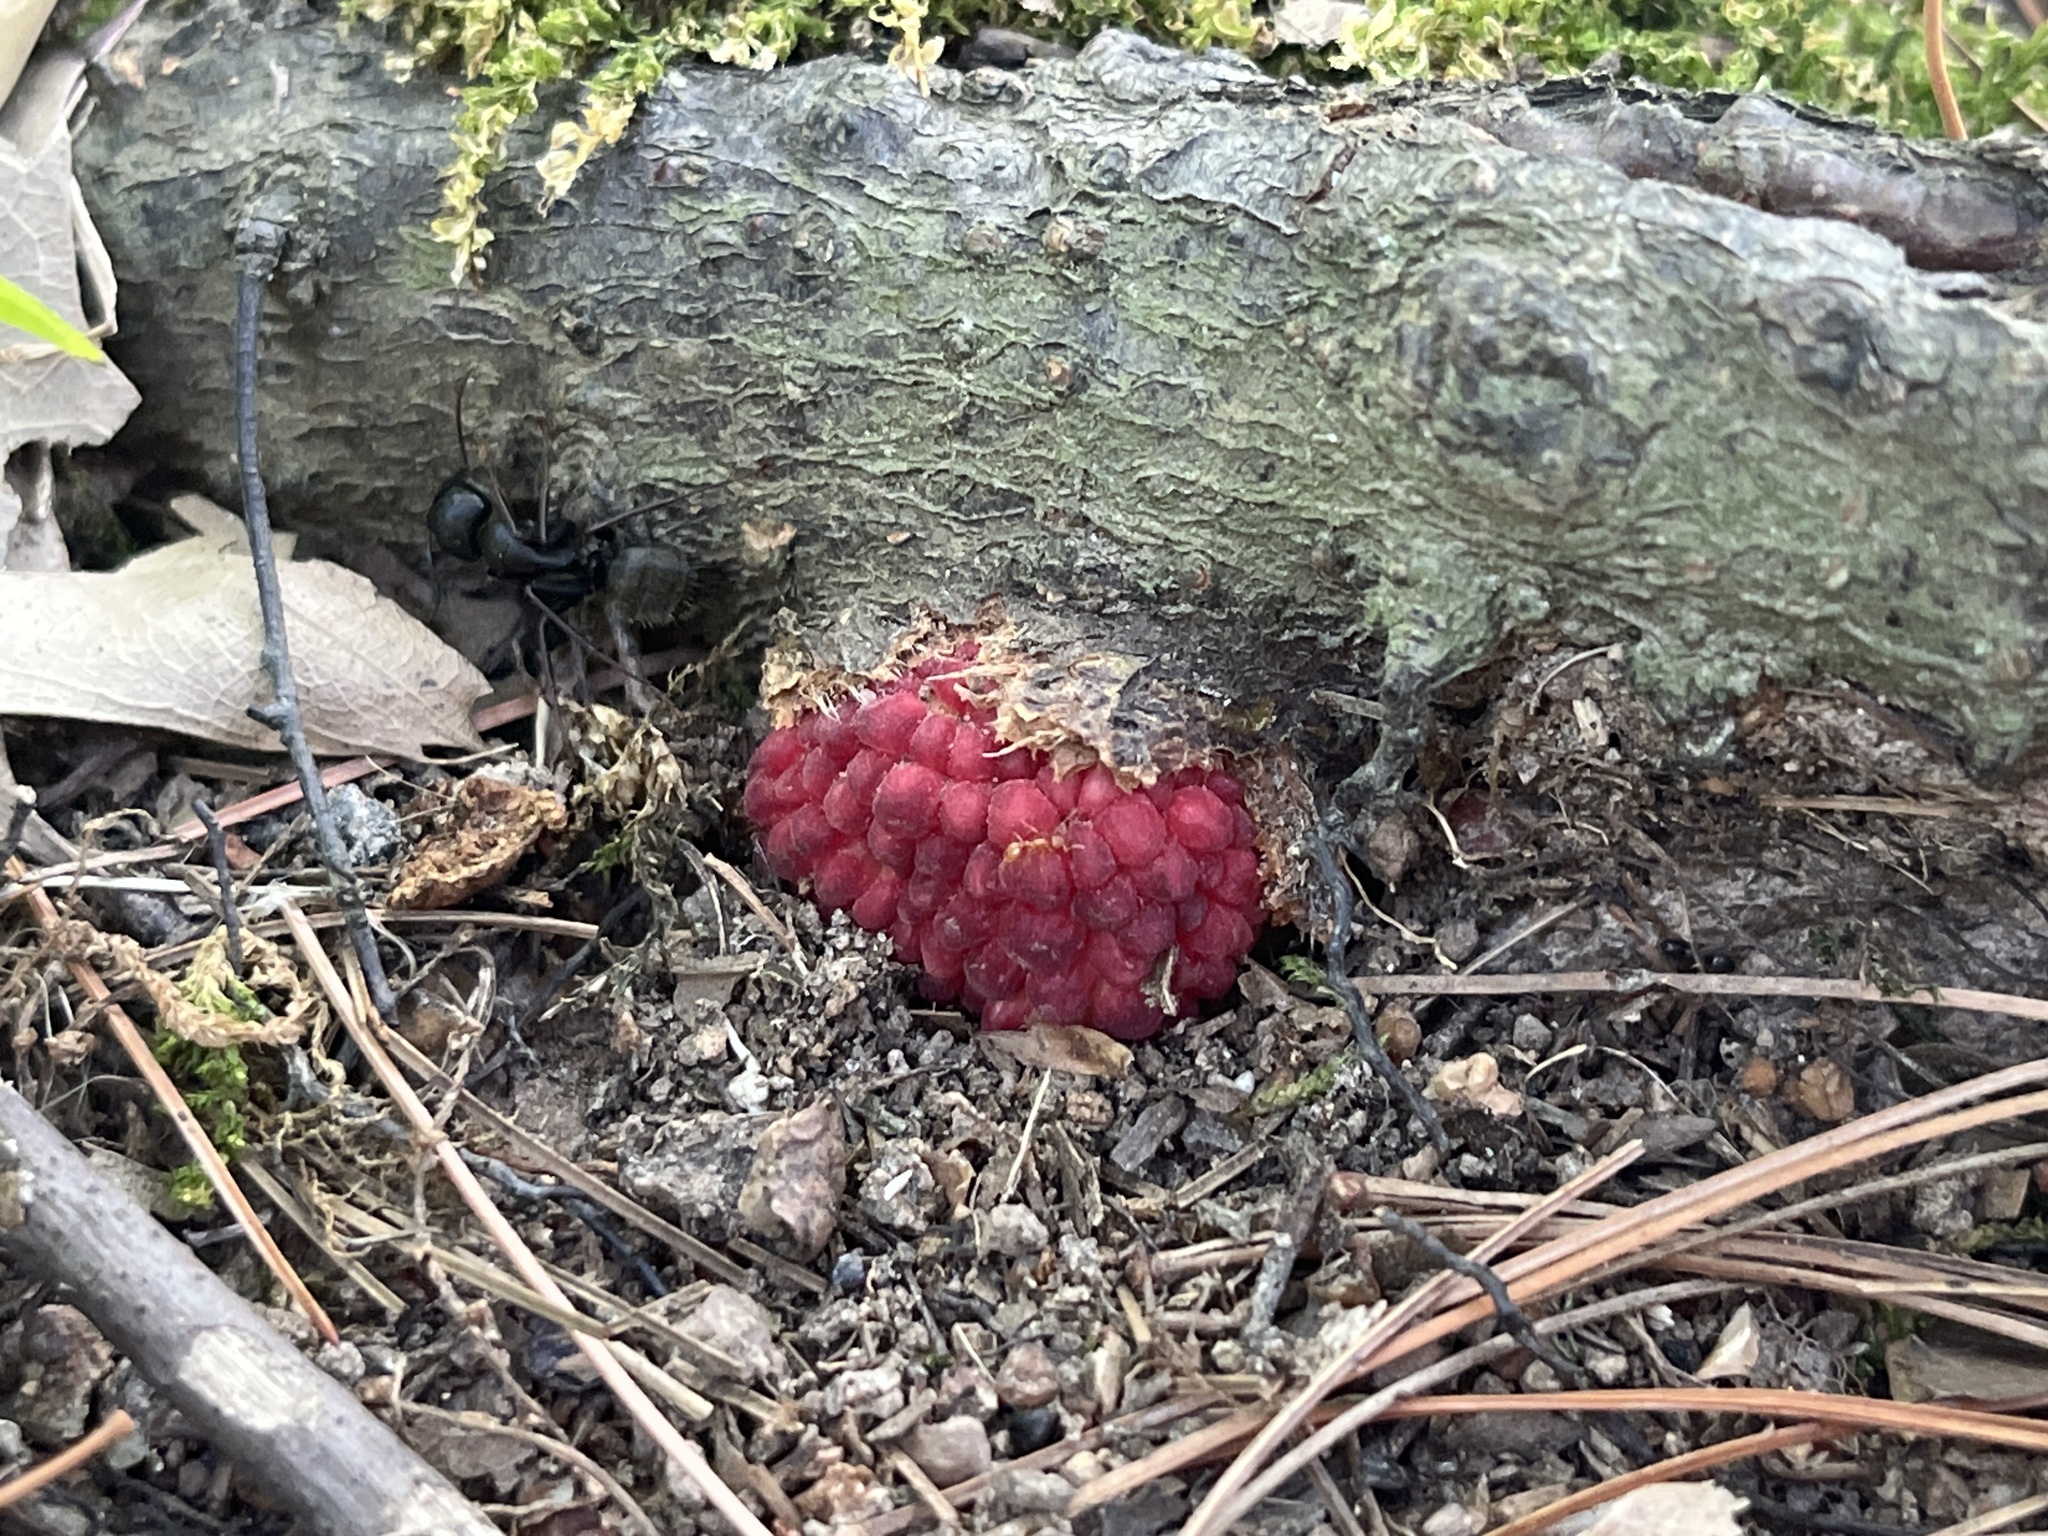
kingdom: Animalia
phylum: Arthropoda
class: Insecta
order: Hymenoptera
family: Cynipidae
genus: Dryocosmus
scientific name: Dryocosmus
